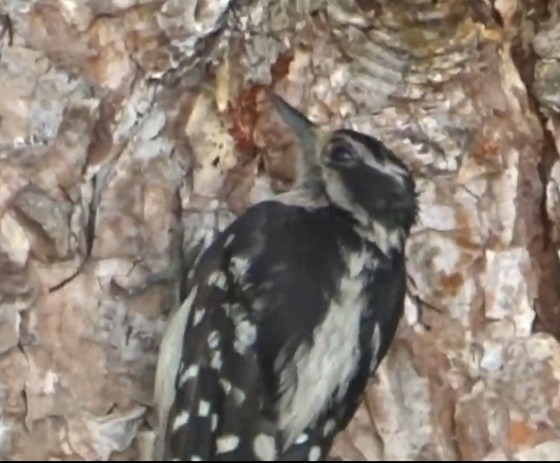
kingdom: Animalia
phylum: Chordata
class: Aves
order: Piciformes
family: Picidae
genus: Leuconotopicus
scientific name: Leuconotopicus villosus
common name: Hairy woodpecker
